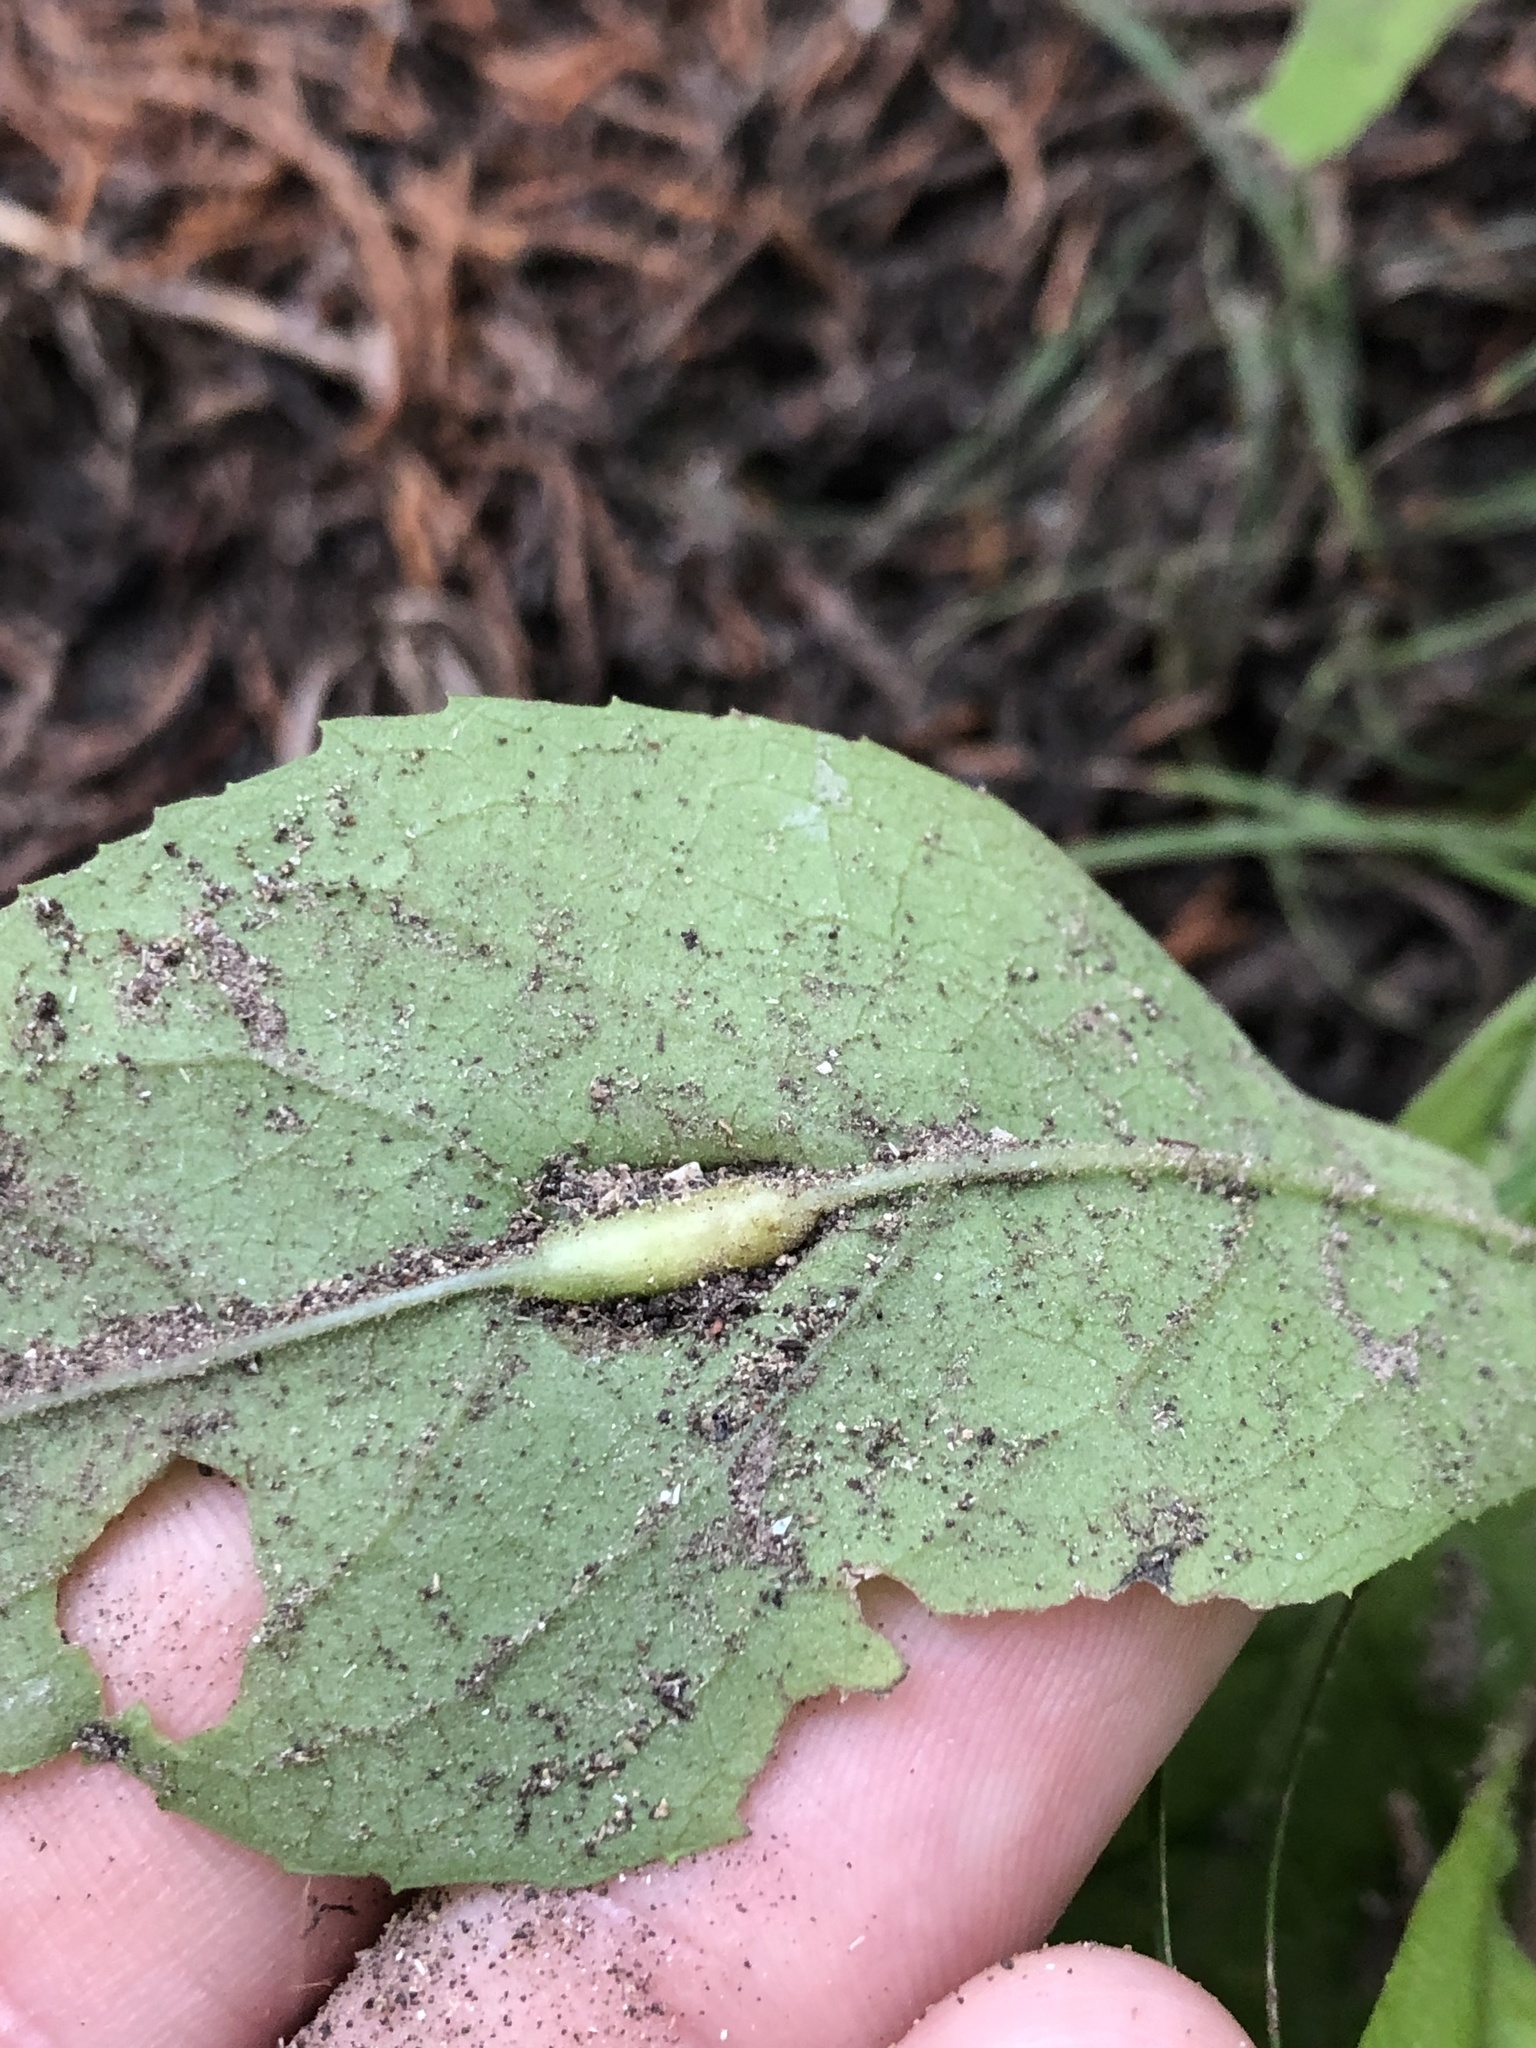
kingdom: Animalia
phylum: Arthropoda
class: Insecta
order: Diptera
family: Cecidomyiidae
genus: Neolasioptera
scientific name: Neolasioptera vernoniae
